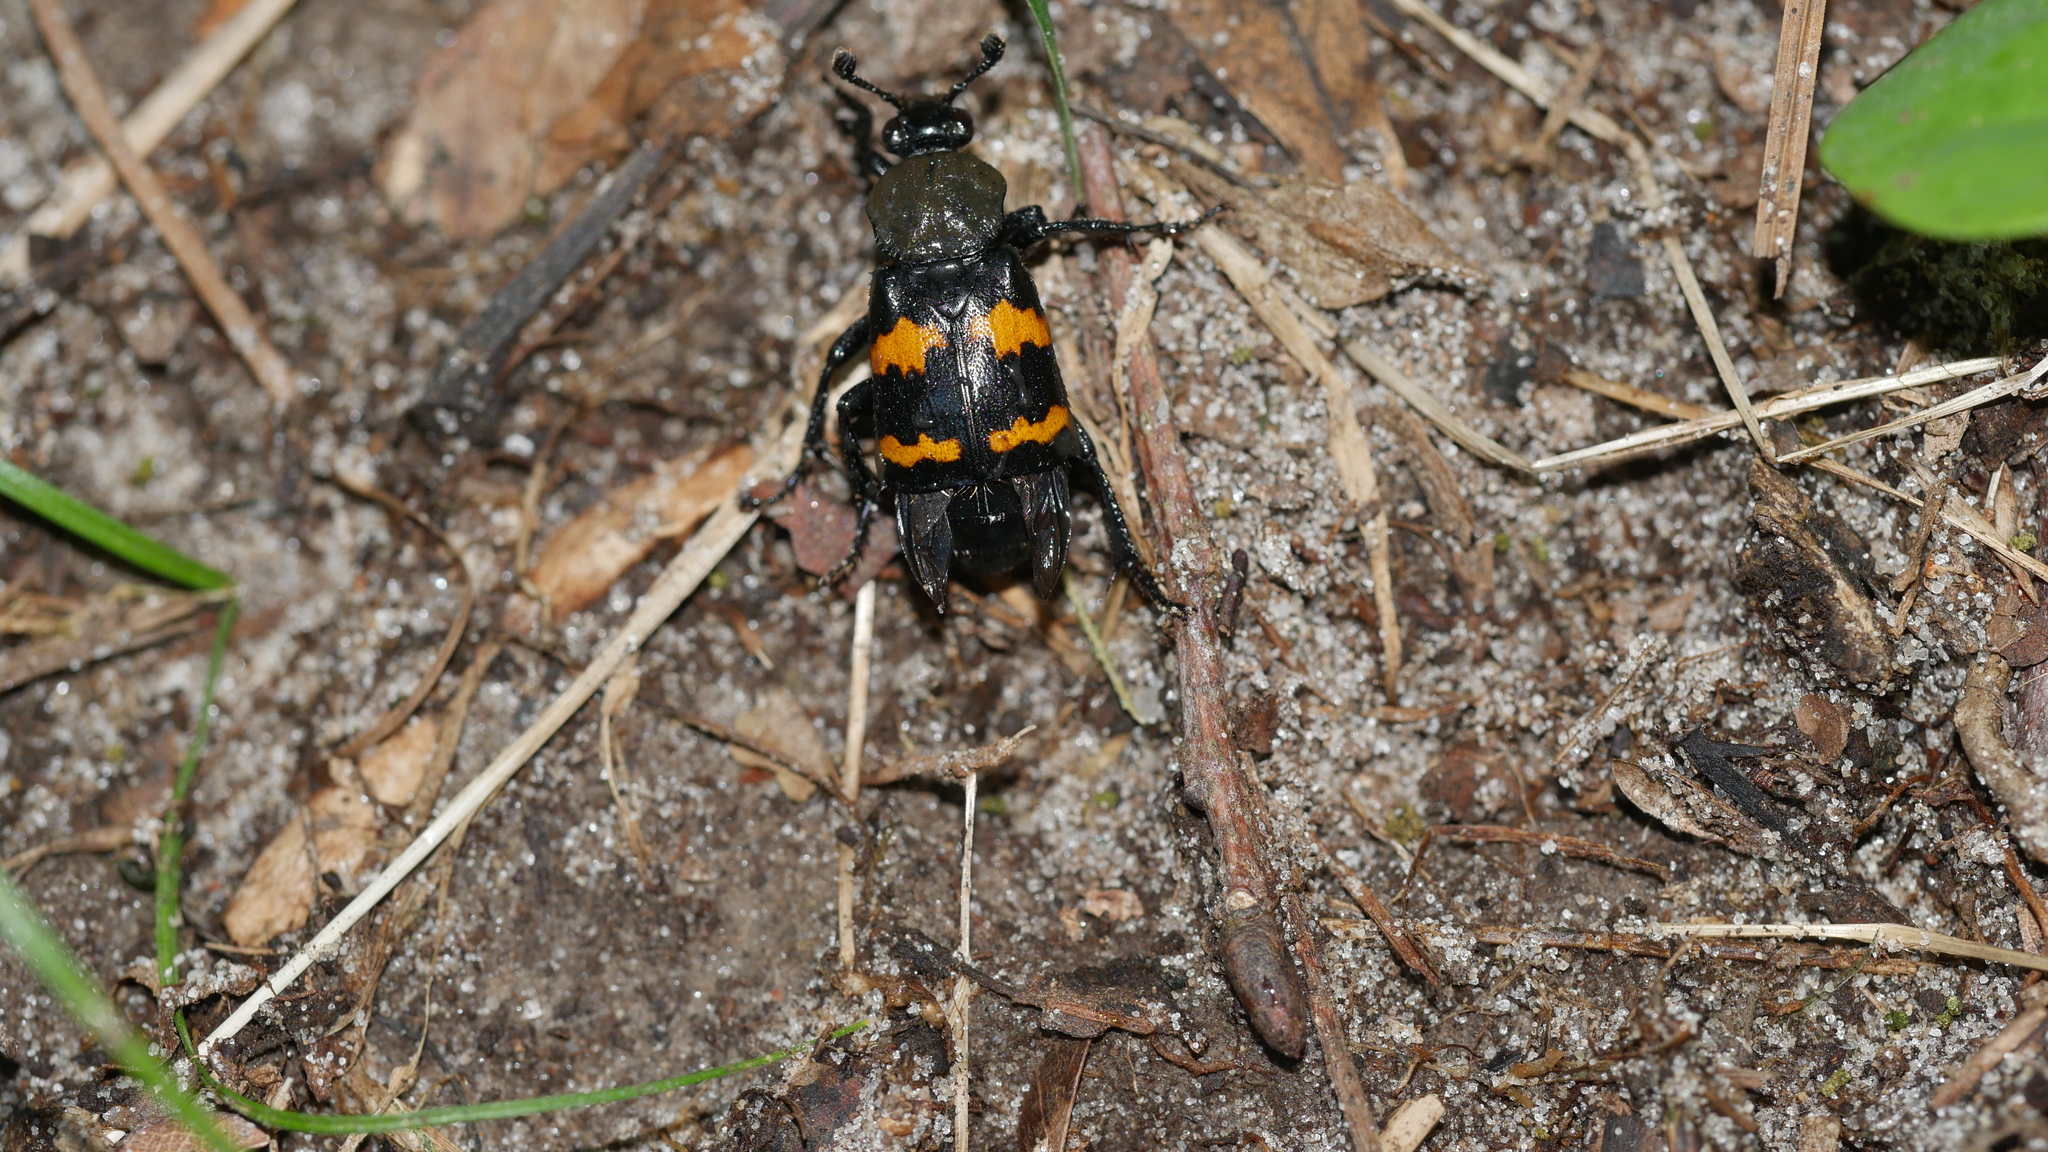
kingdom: Animalia
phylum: Arthropoda
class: Insecta
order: Coleoptera
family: Staphylinidae
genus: Nicrophorus
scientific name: Nicrophorus tomentosus
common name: Tomentose burying beetle
